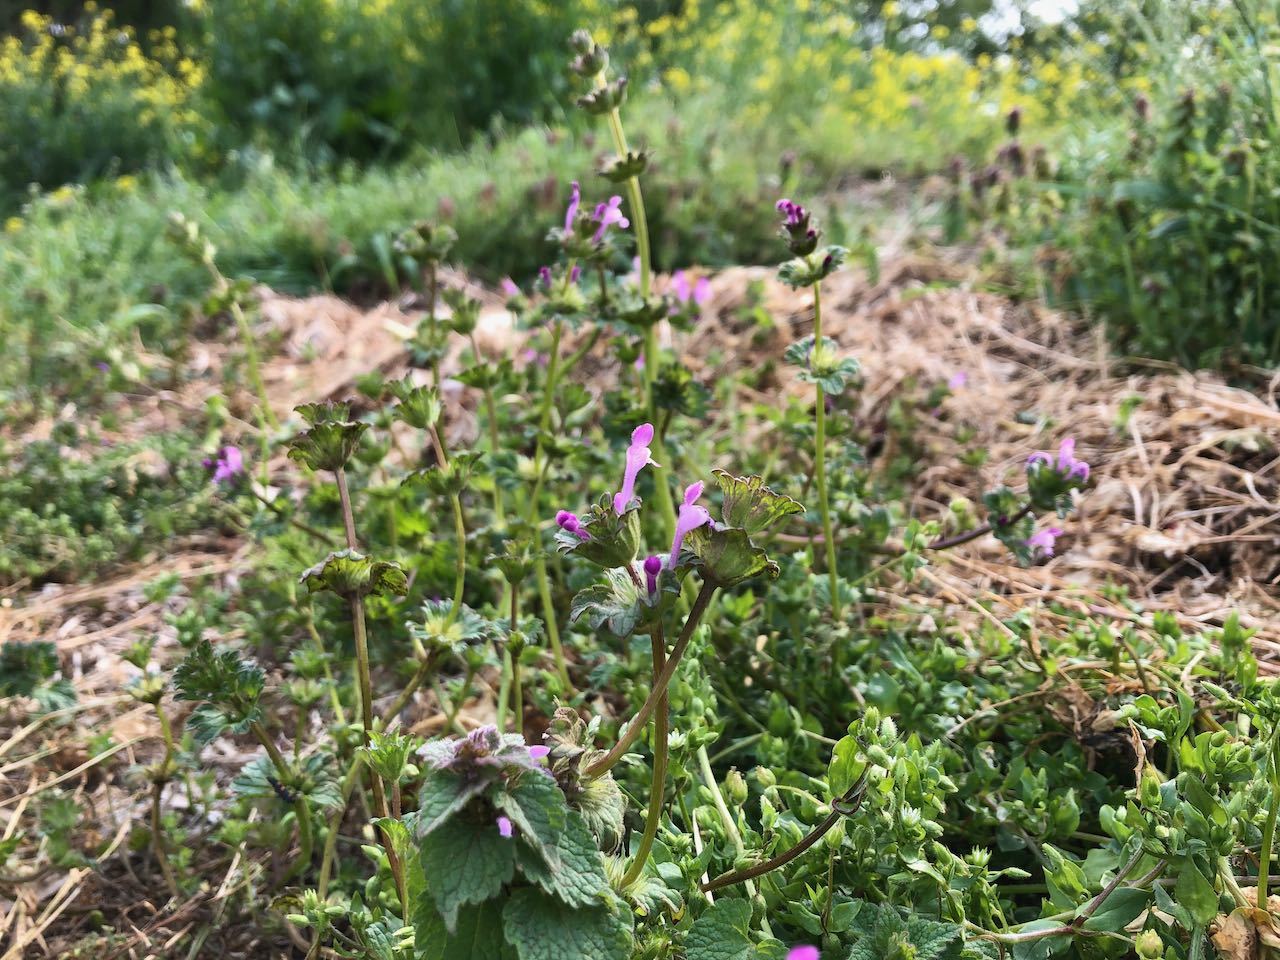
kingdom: Plantae
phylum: Tracheophyta
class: Magnoliopsida
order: Lamiales
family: Lamiaceae
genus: Lamium
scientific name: Lamium amplexicaule
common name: Henbit dead-nettle
